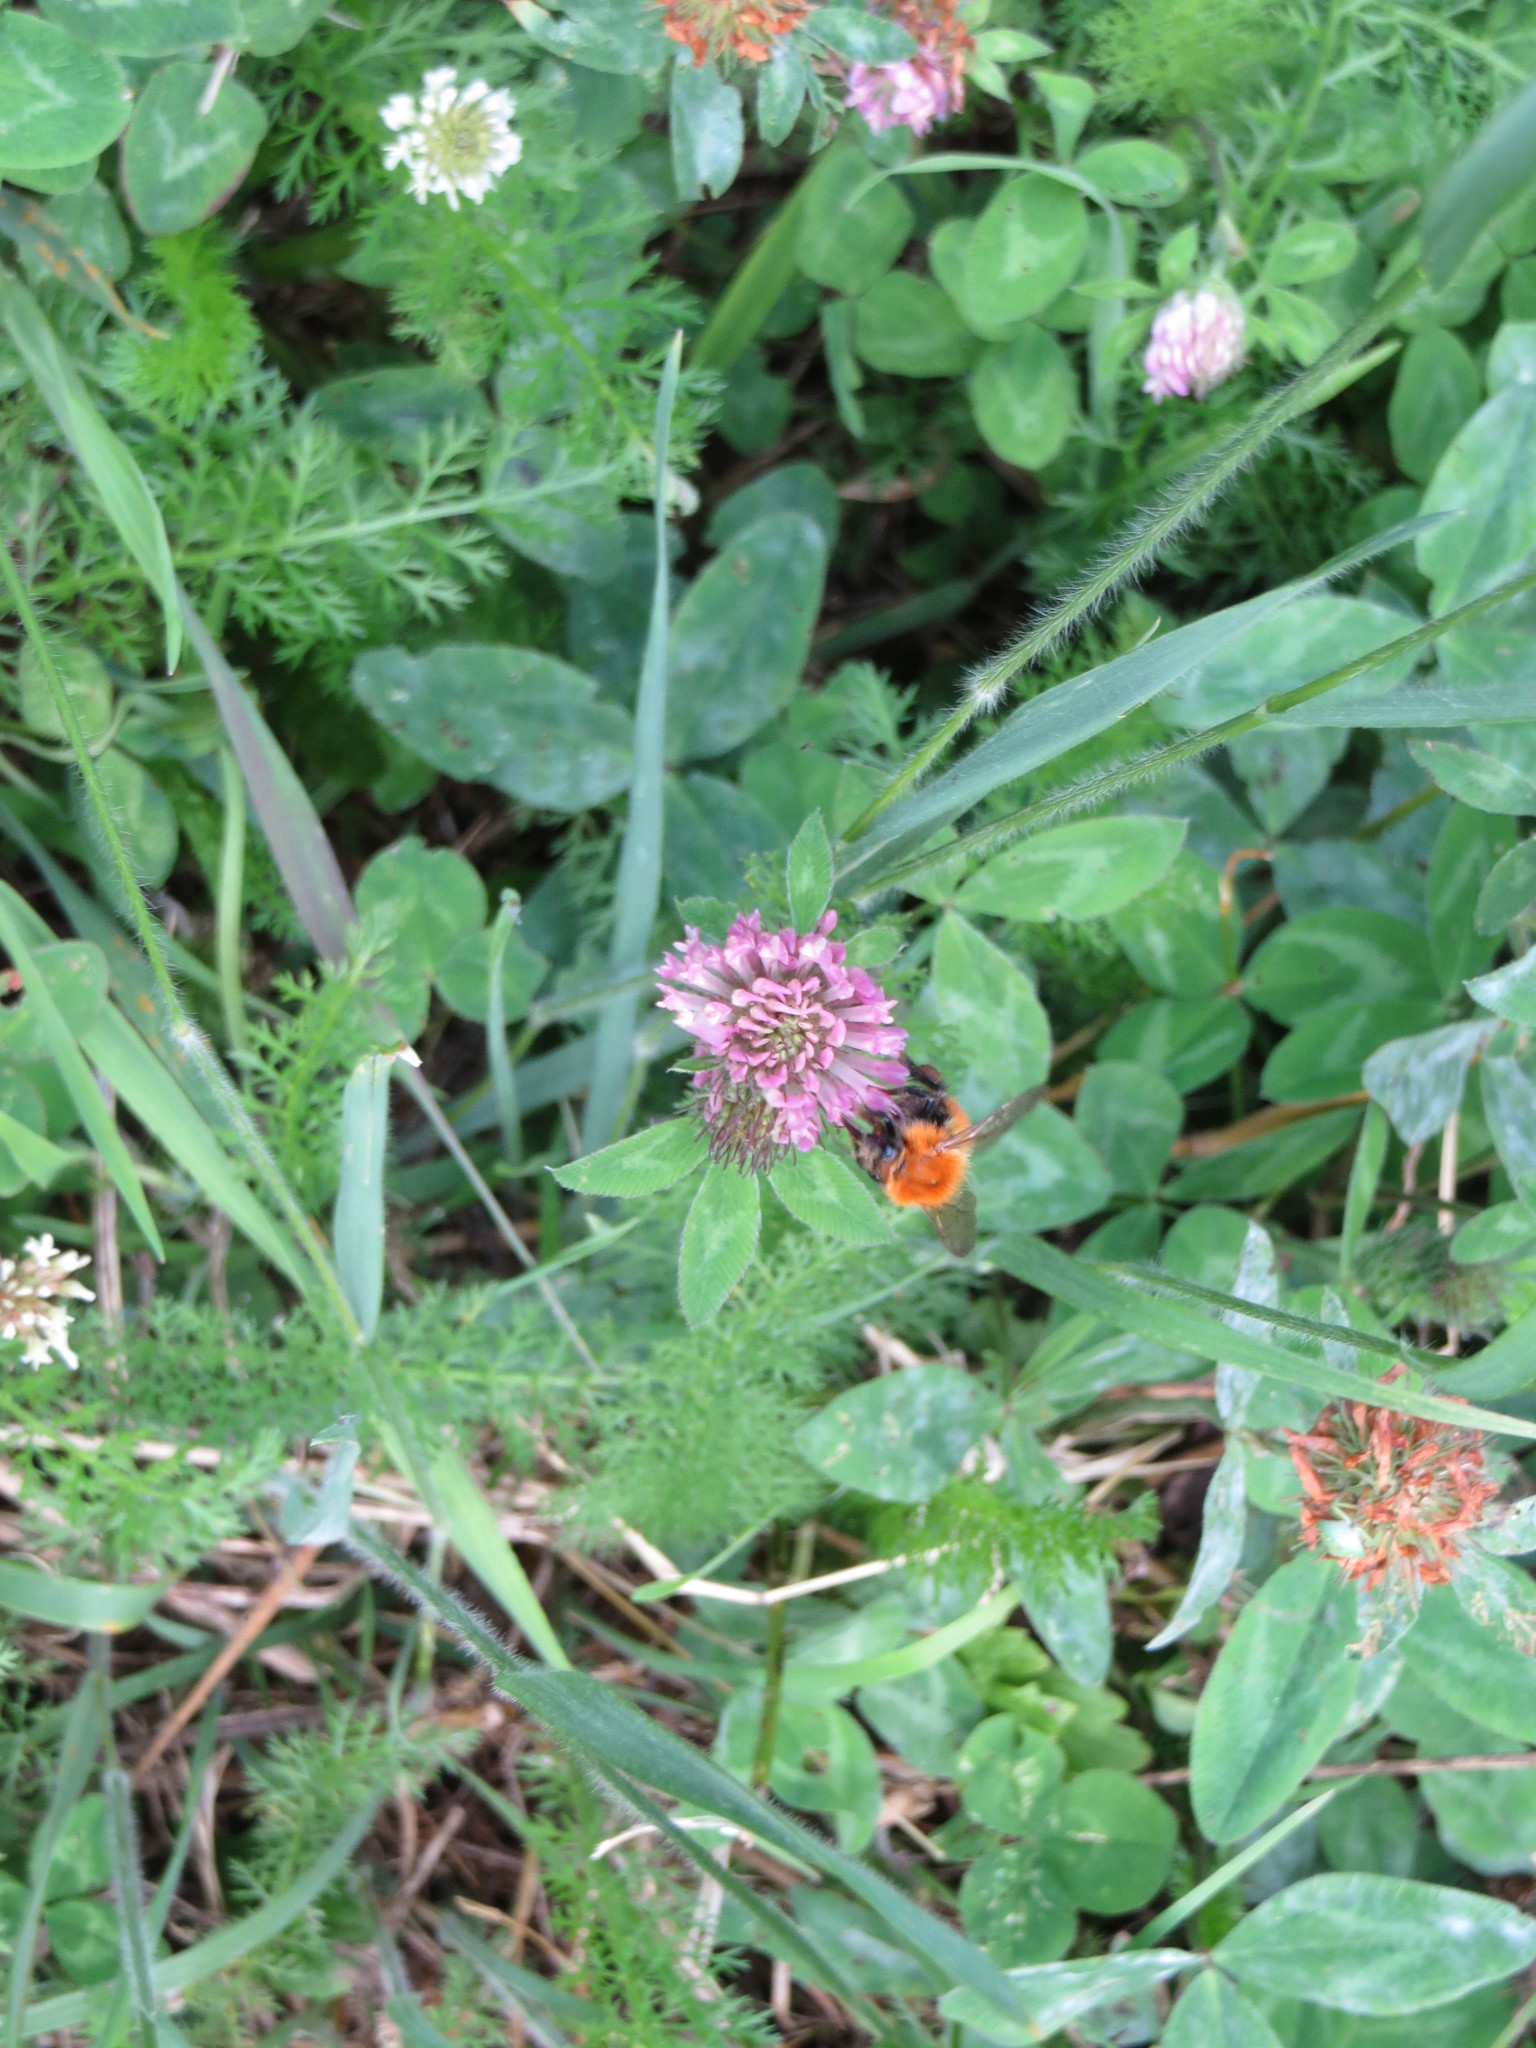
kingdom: Animalia
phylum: Arthropoda
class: Insecta
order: Hymenoptera
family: Apidae
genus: Bombus
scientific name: Bombus pascuorum
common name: Common carder bee
